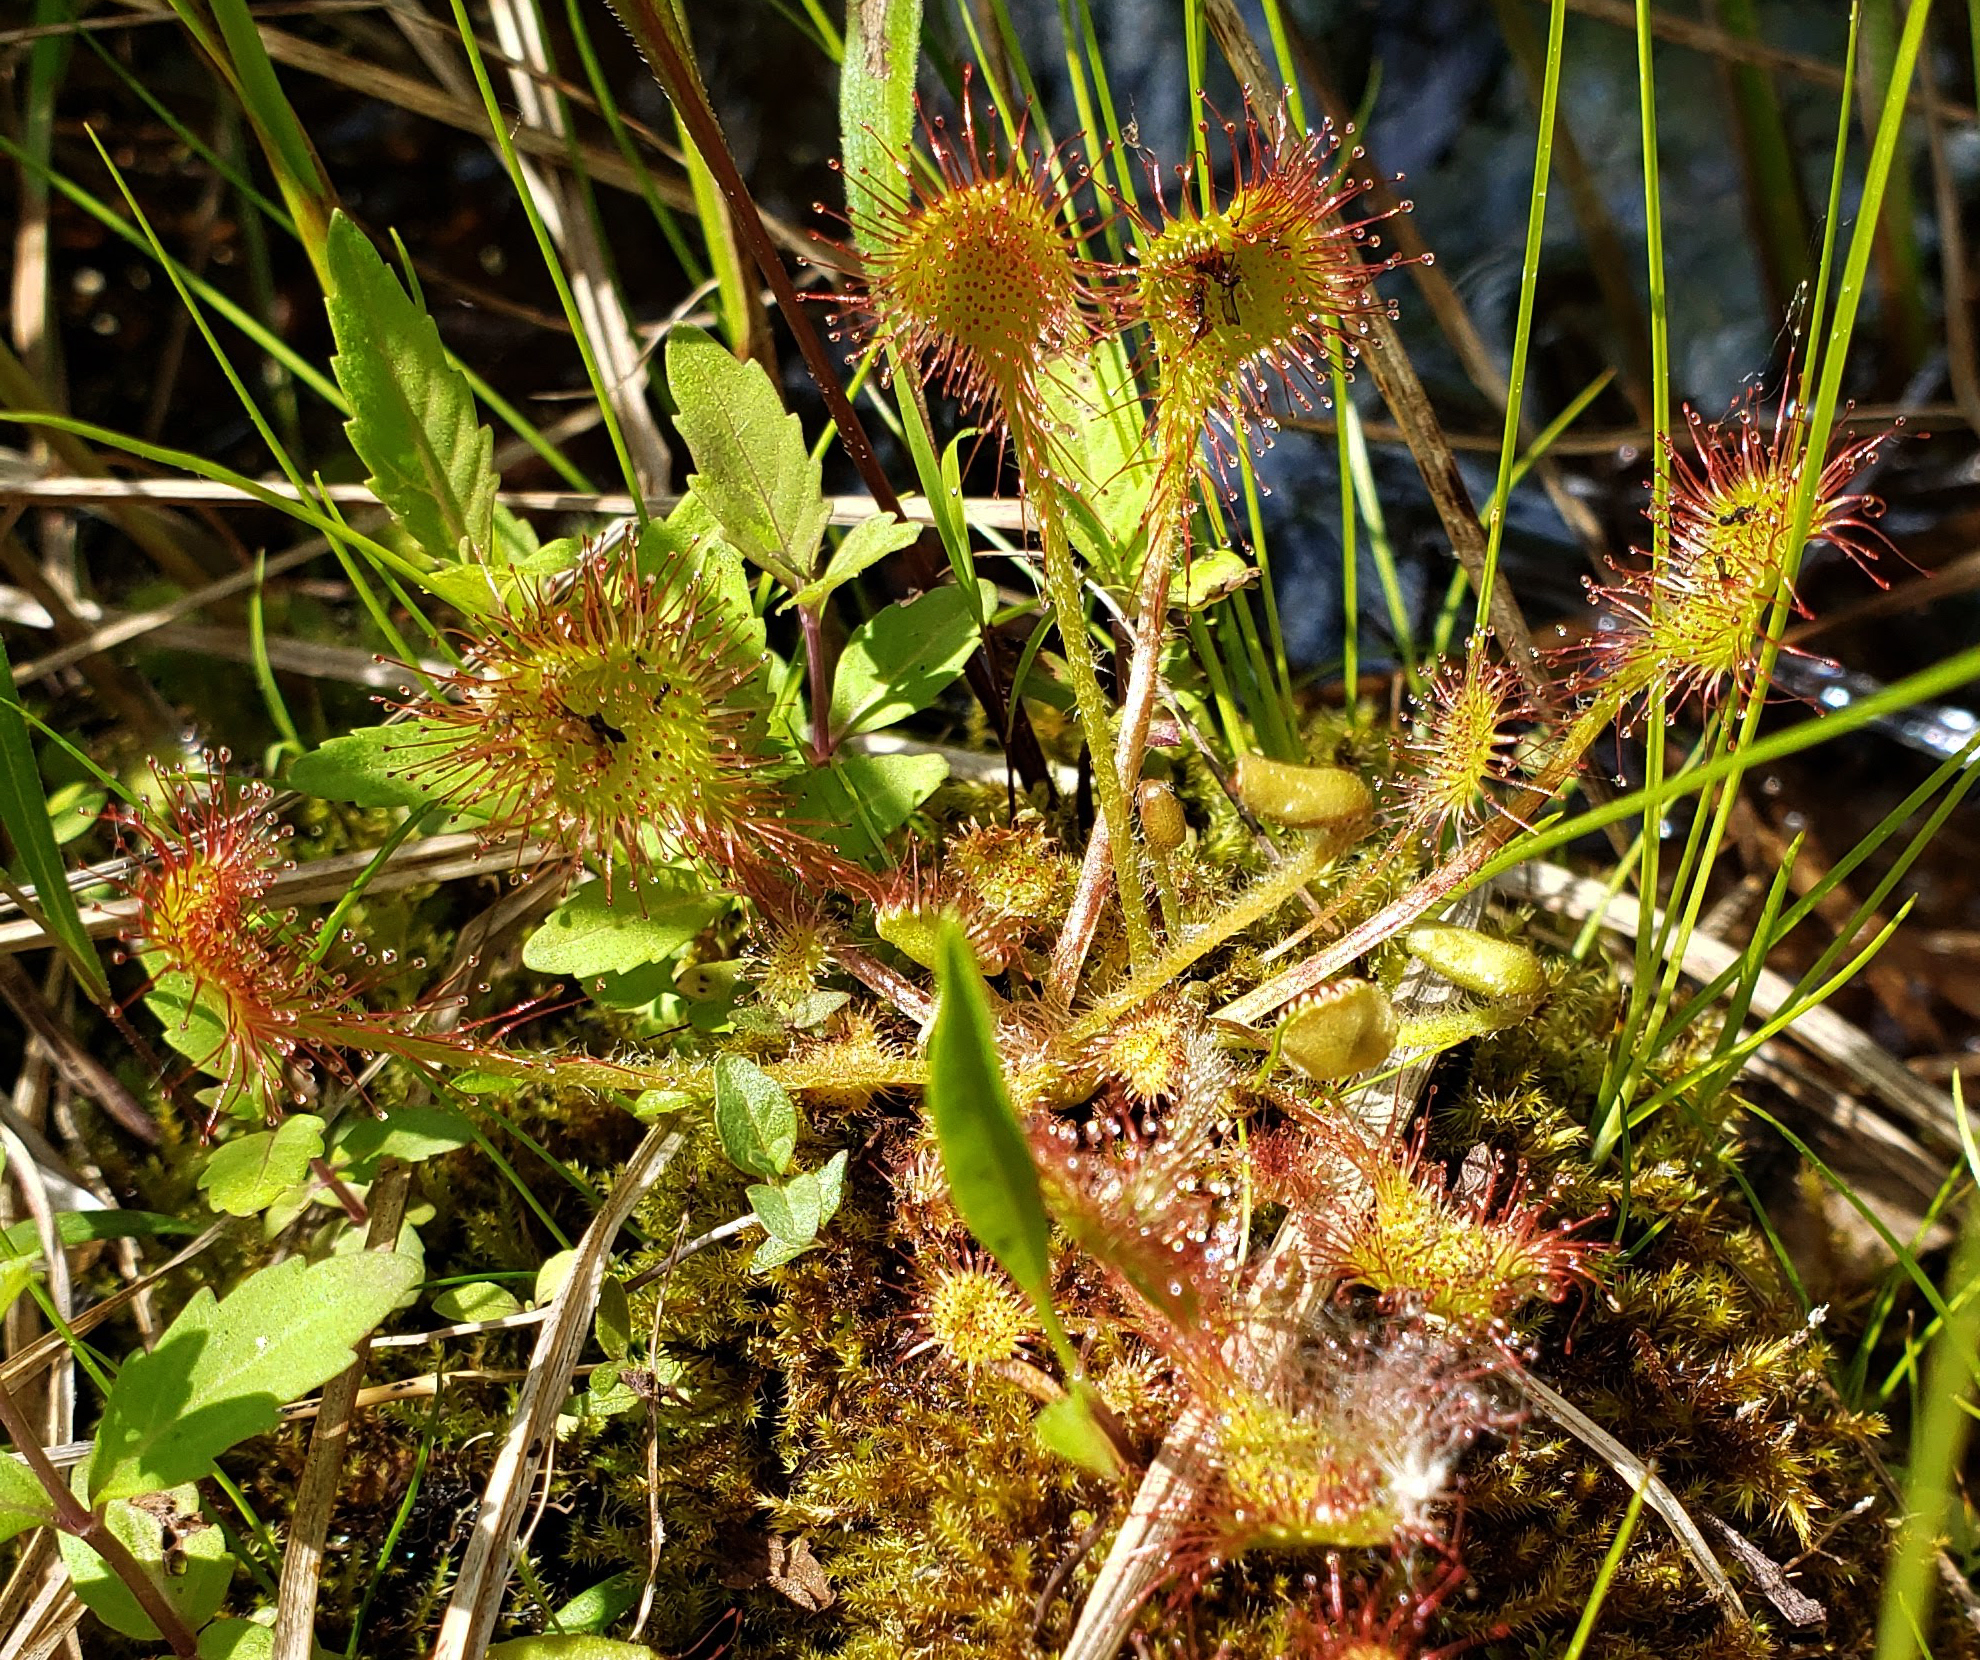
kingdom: Plantae
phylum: Tracheophyta
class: Magnoliopsida
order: Caryophyllales
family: Droseraceae
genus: Drosera
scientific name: Drosera rotundifolia
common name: Round-leaved sundew
